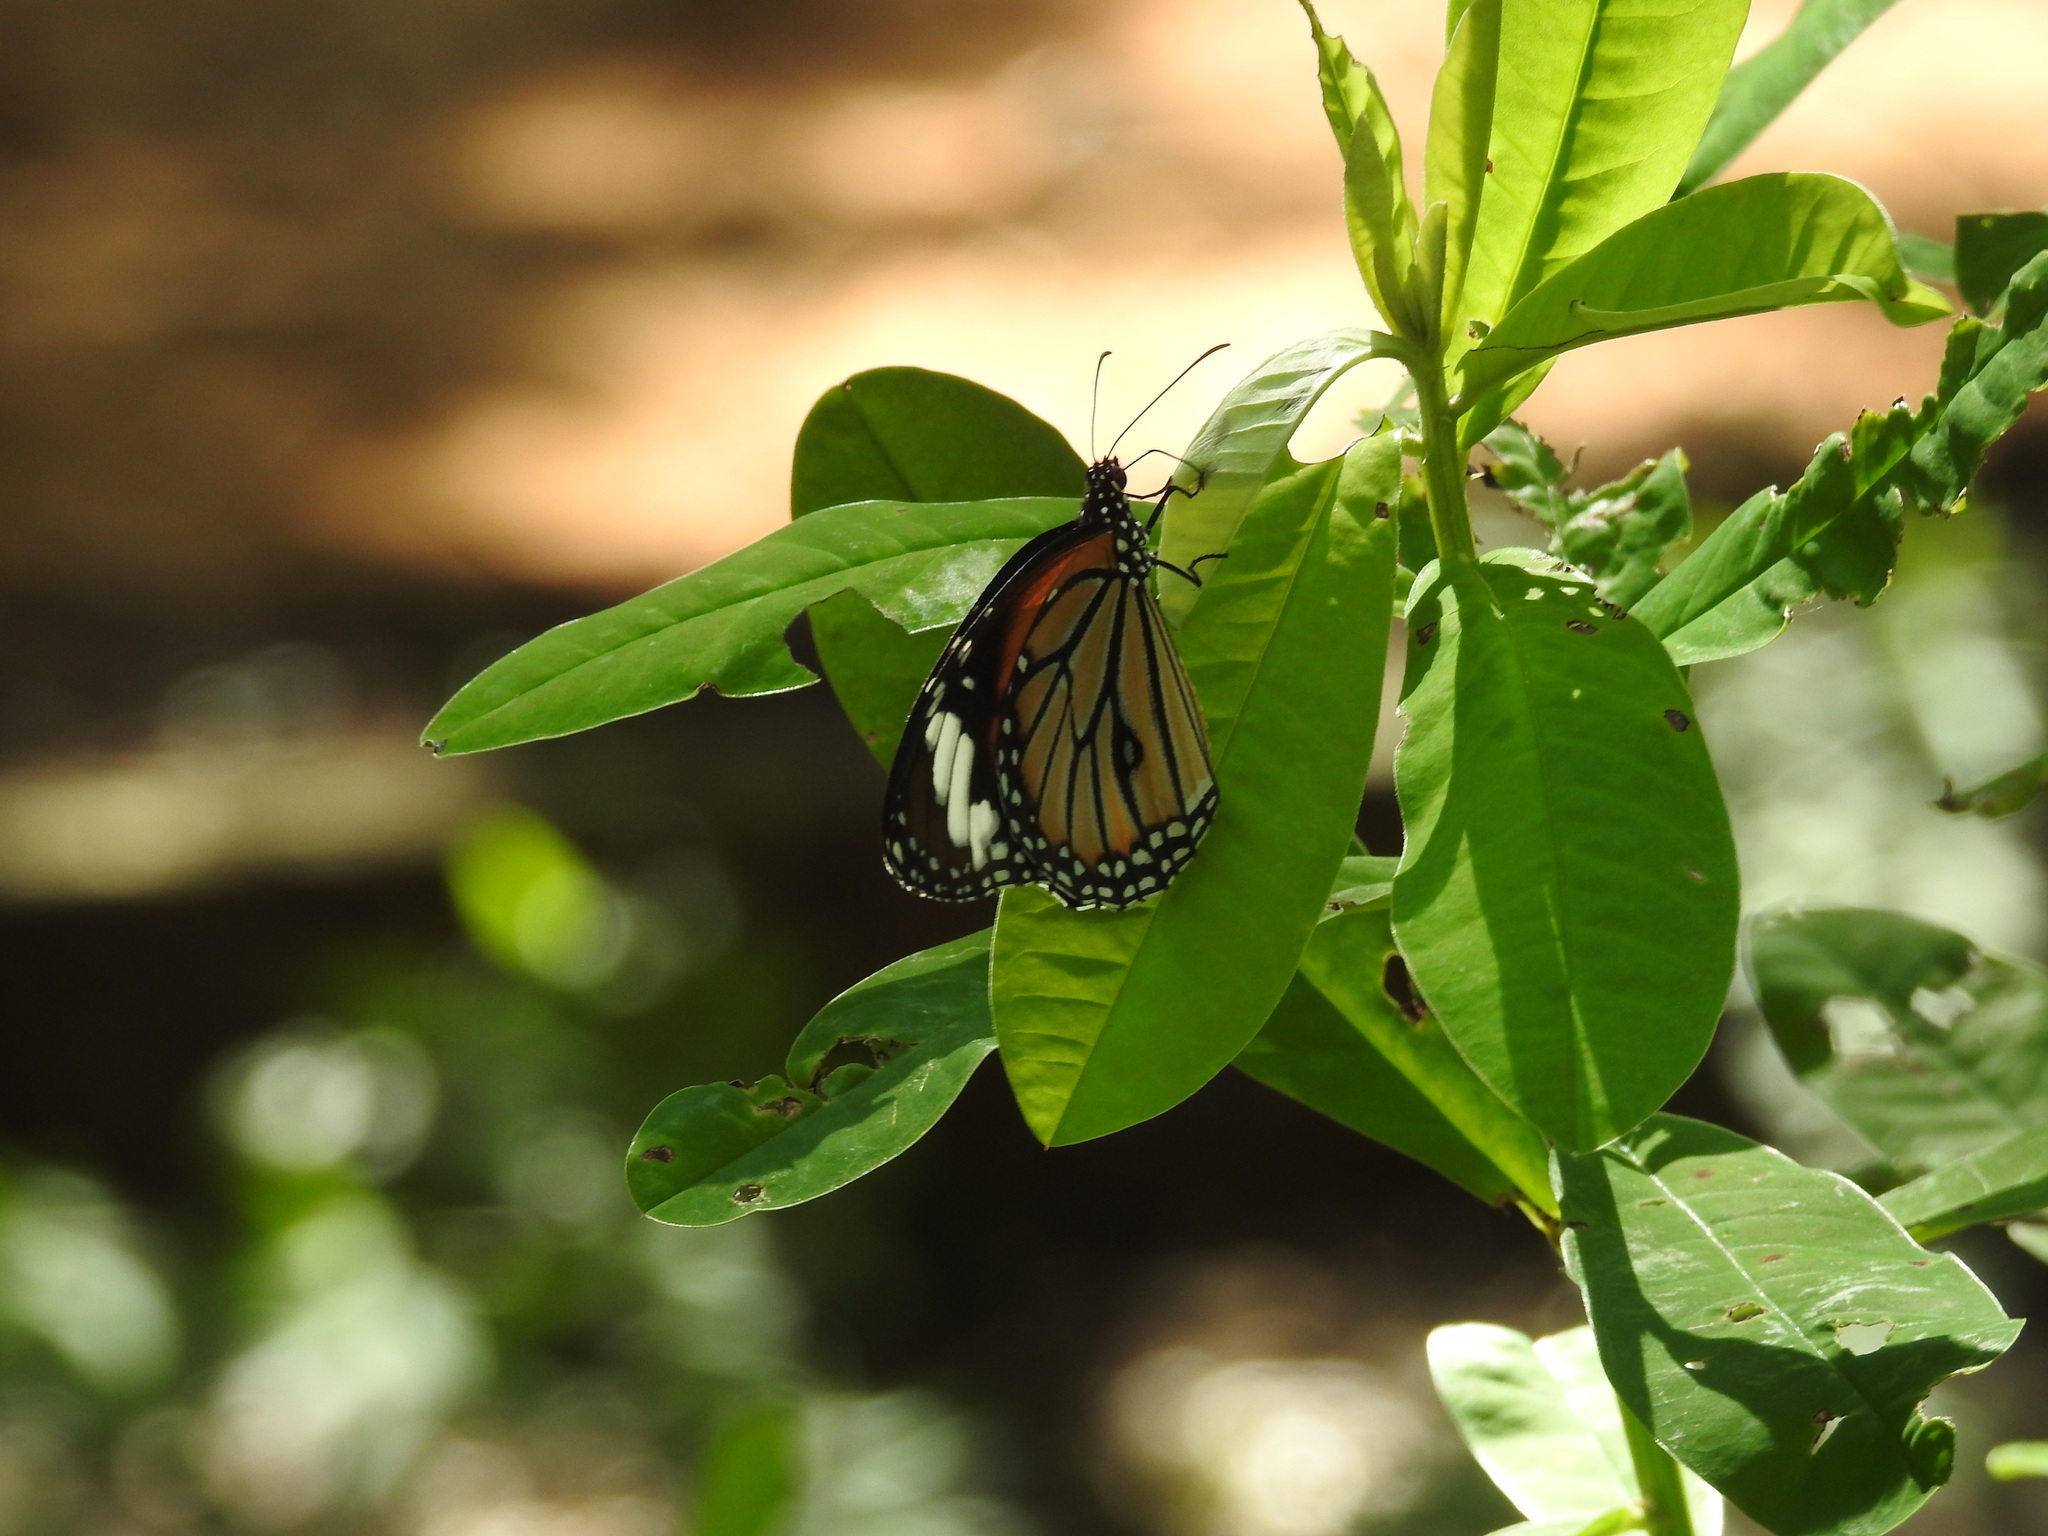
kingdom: Animalia
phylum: Arthropoda
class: Insecta
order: Lepidoptera
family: Nymphalidae
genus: Danaus
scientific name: Danaus genutia
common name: Common tiger butterfly
